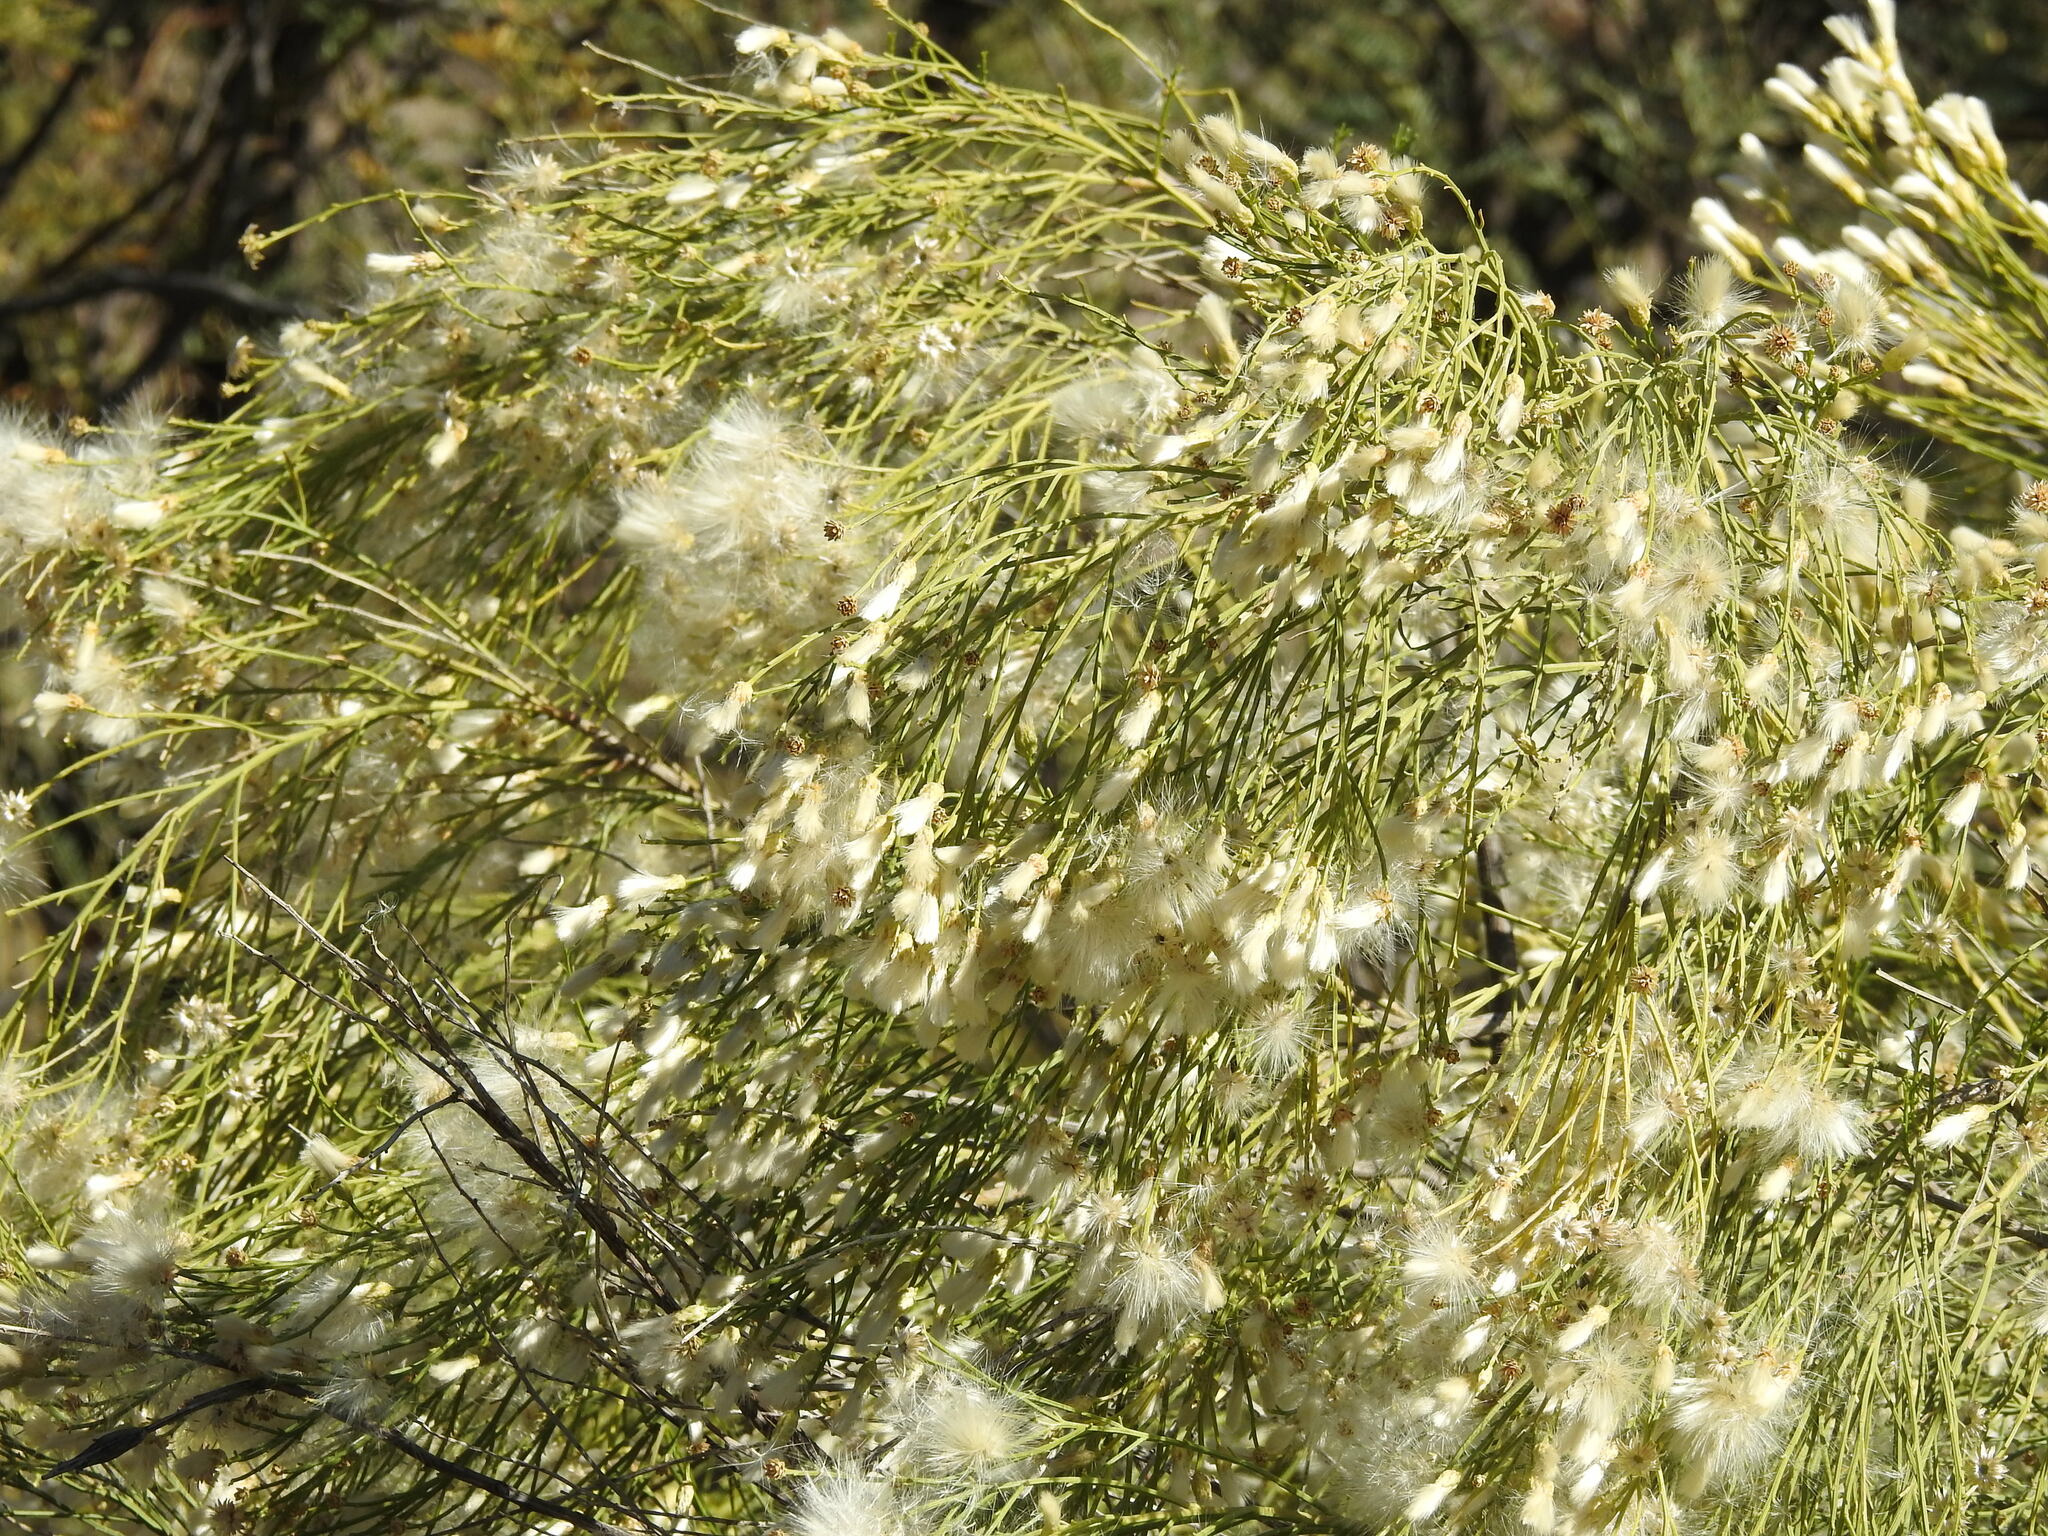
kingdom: Plantae
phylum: Tracheophyta
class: Magnoliopsida
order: Asterales
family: Asteraceae
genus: Baccharis
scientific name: Baccharis sarothroides
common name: Desert-broom
